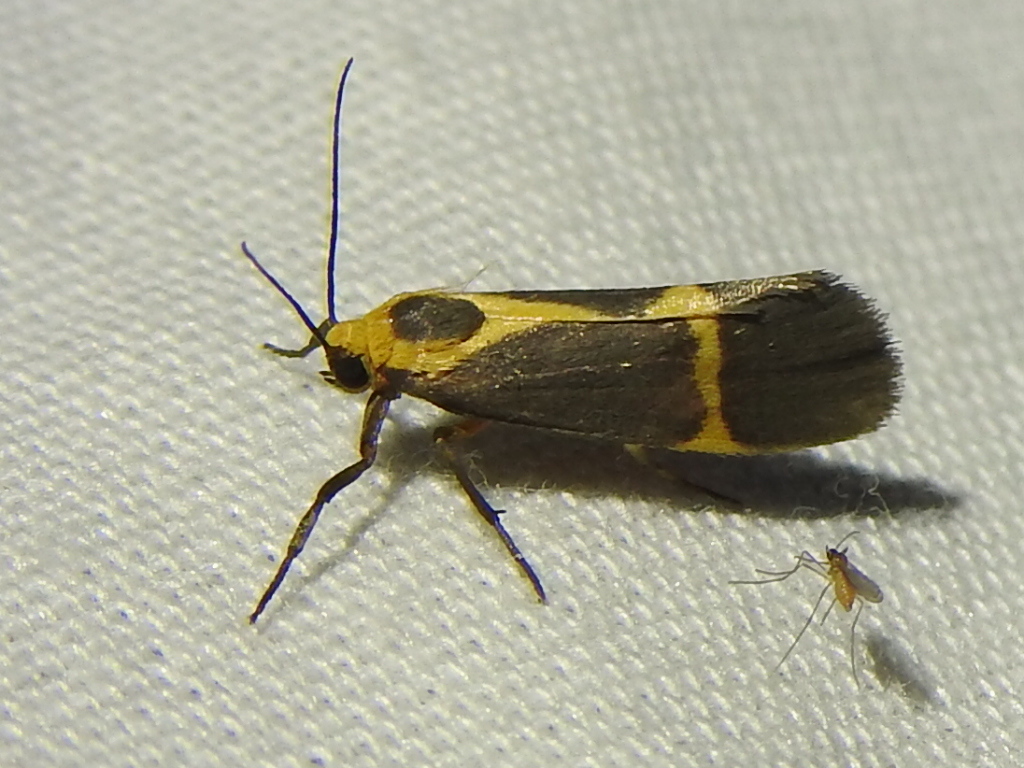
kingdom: Animalia
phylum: Arthropoda
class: Insecta
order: Lepidoptera
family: Erebidae
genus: Cisthene
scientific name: Cisthene tenuifascia
